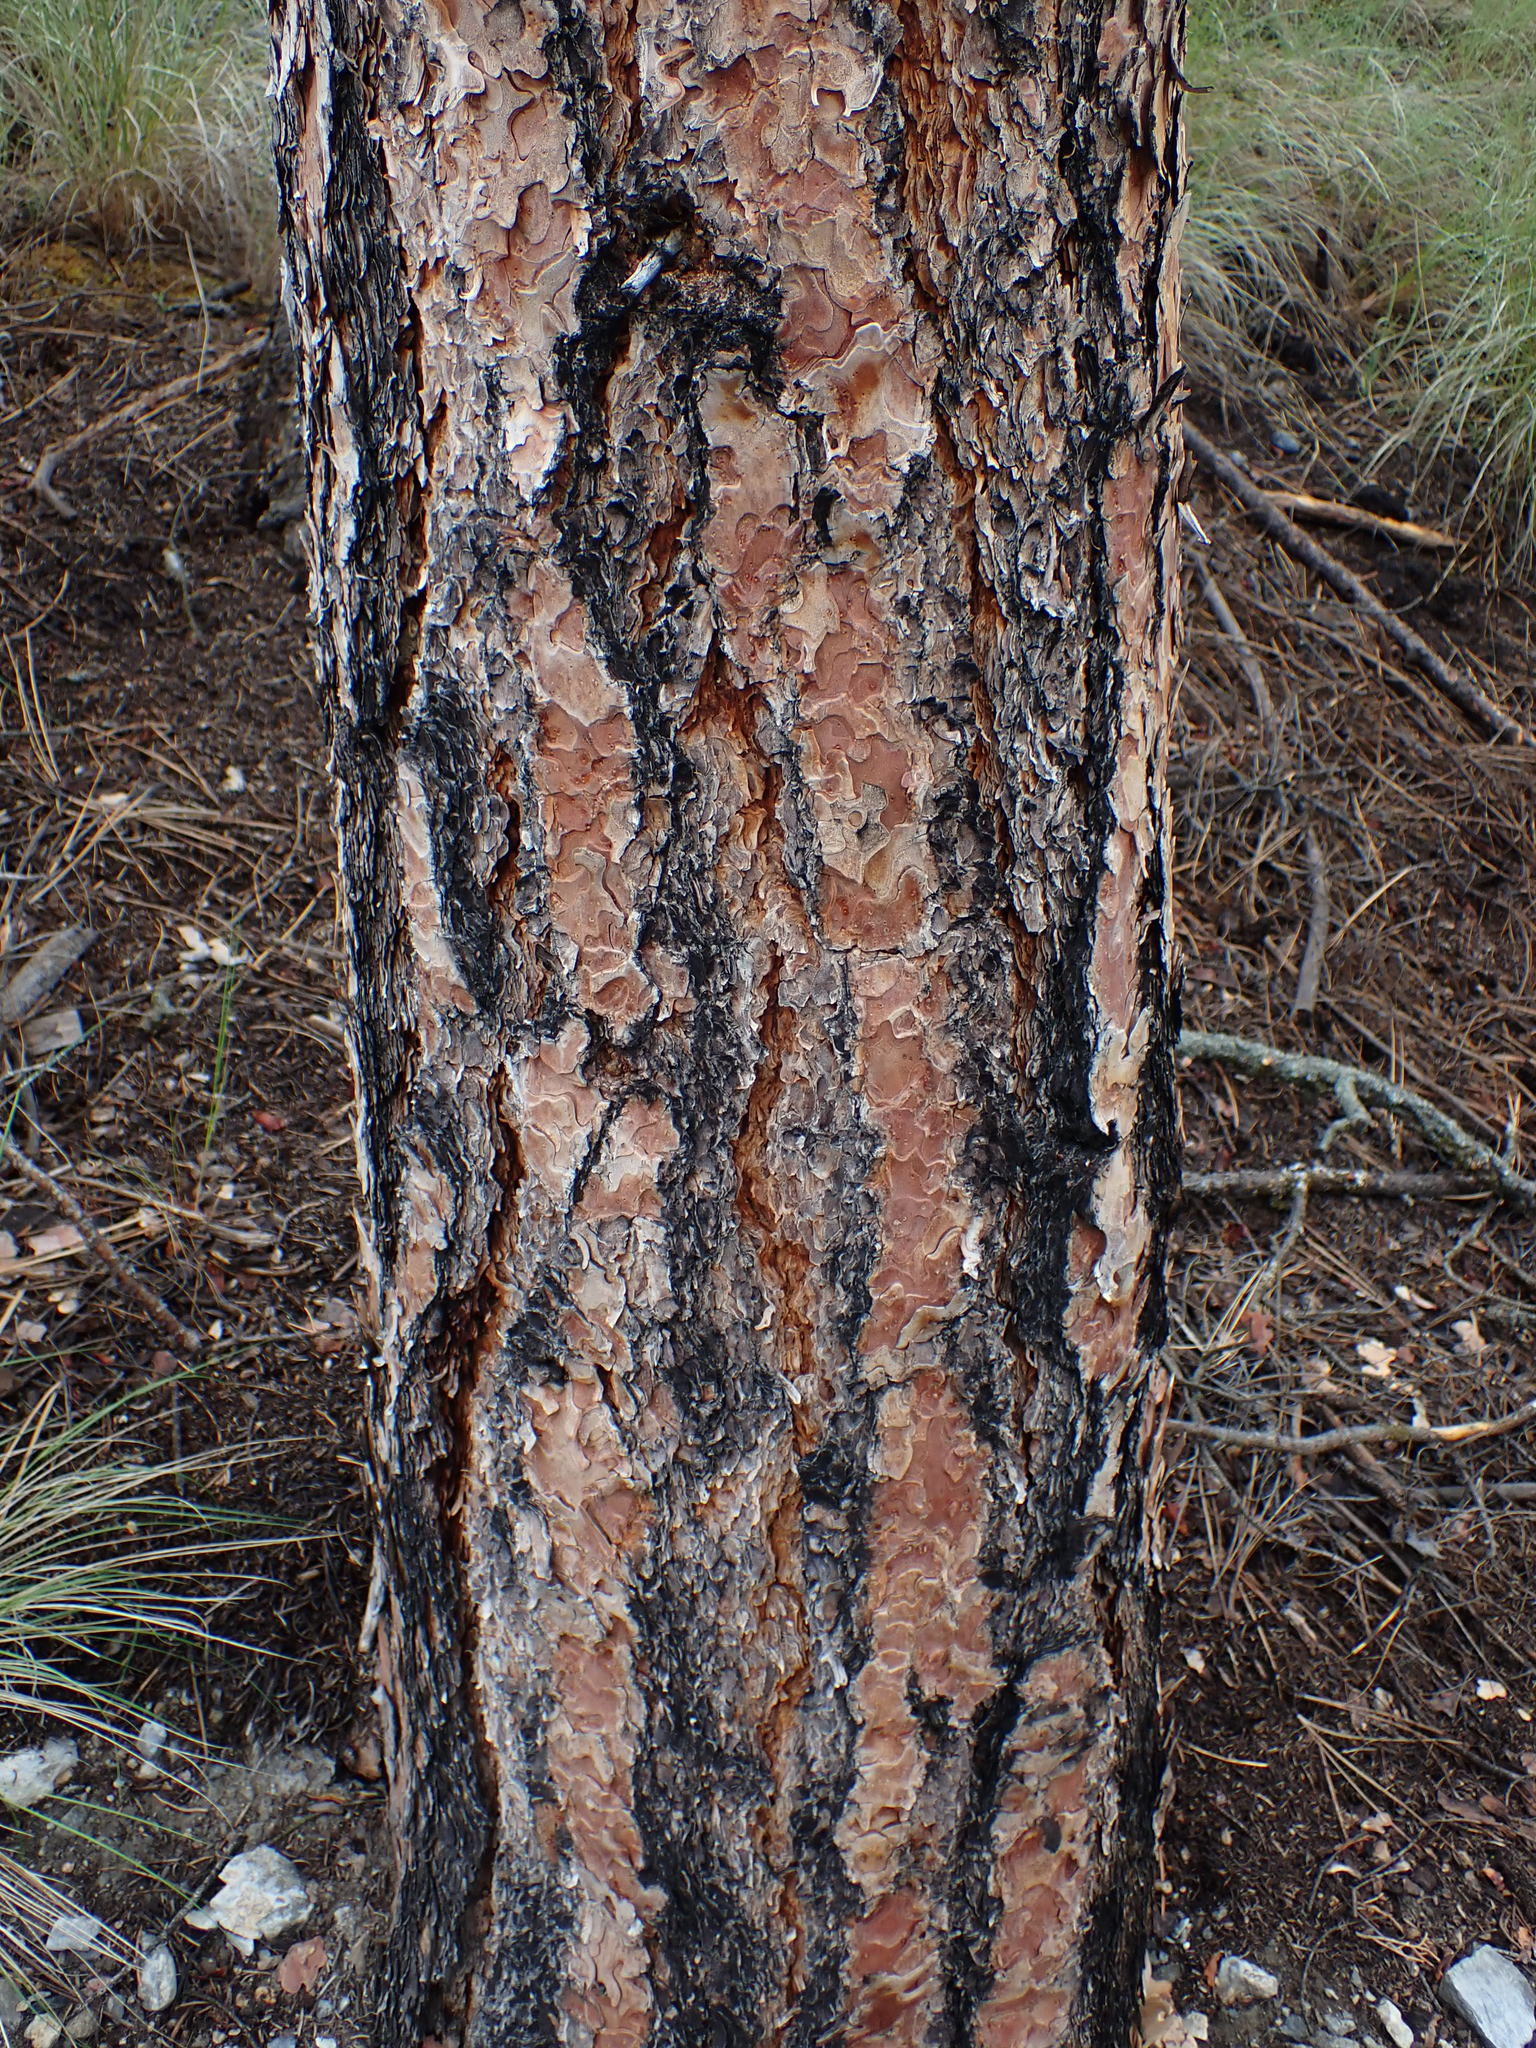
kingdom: Plantae
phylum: Tracheophyta
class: Pinopsida
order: Pinales
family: Pinaceae
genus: Pinus
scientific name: Pinus ponderosa
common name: Western yellow-pine
